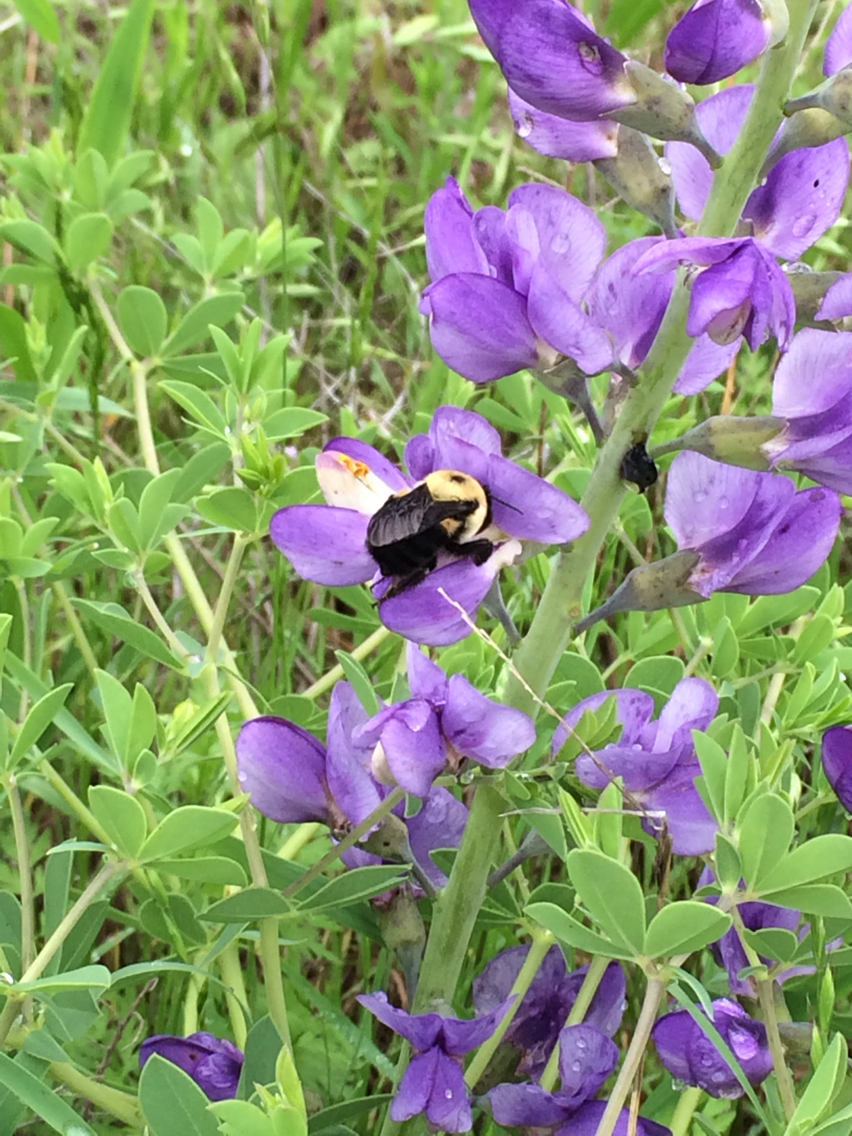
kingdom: Animalia
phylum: Arthropoda
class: Insecta
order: Hymenoptera
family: Apidae
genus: Bombus
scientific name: Bombus griseocollis
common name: Brown-belted bumble bee
